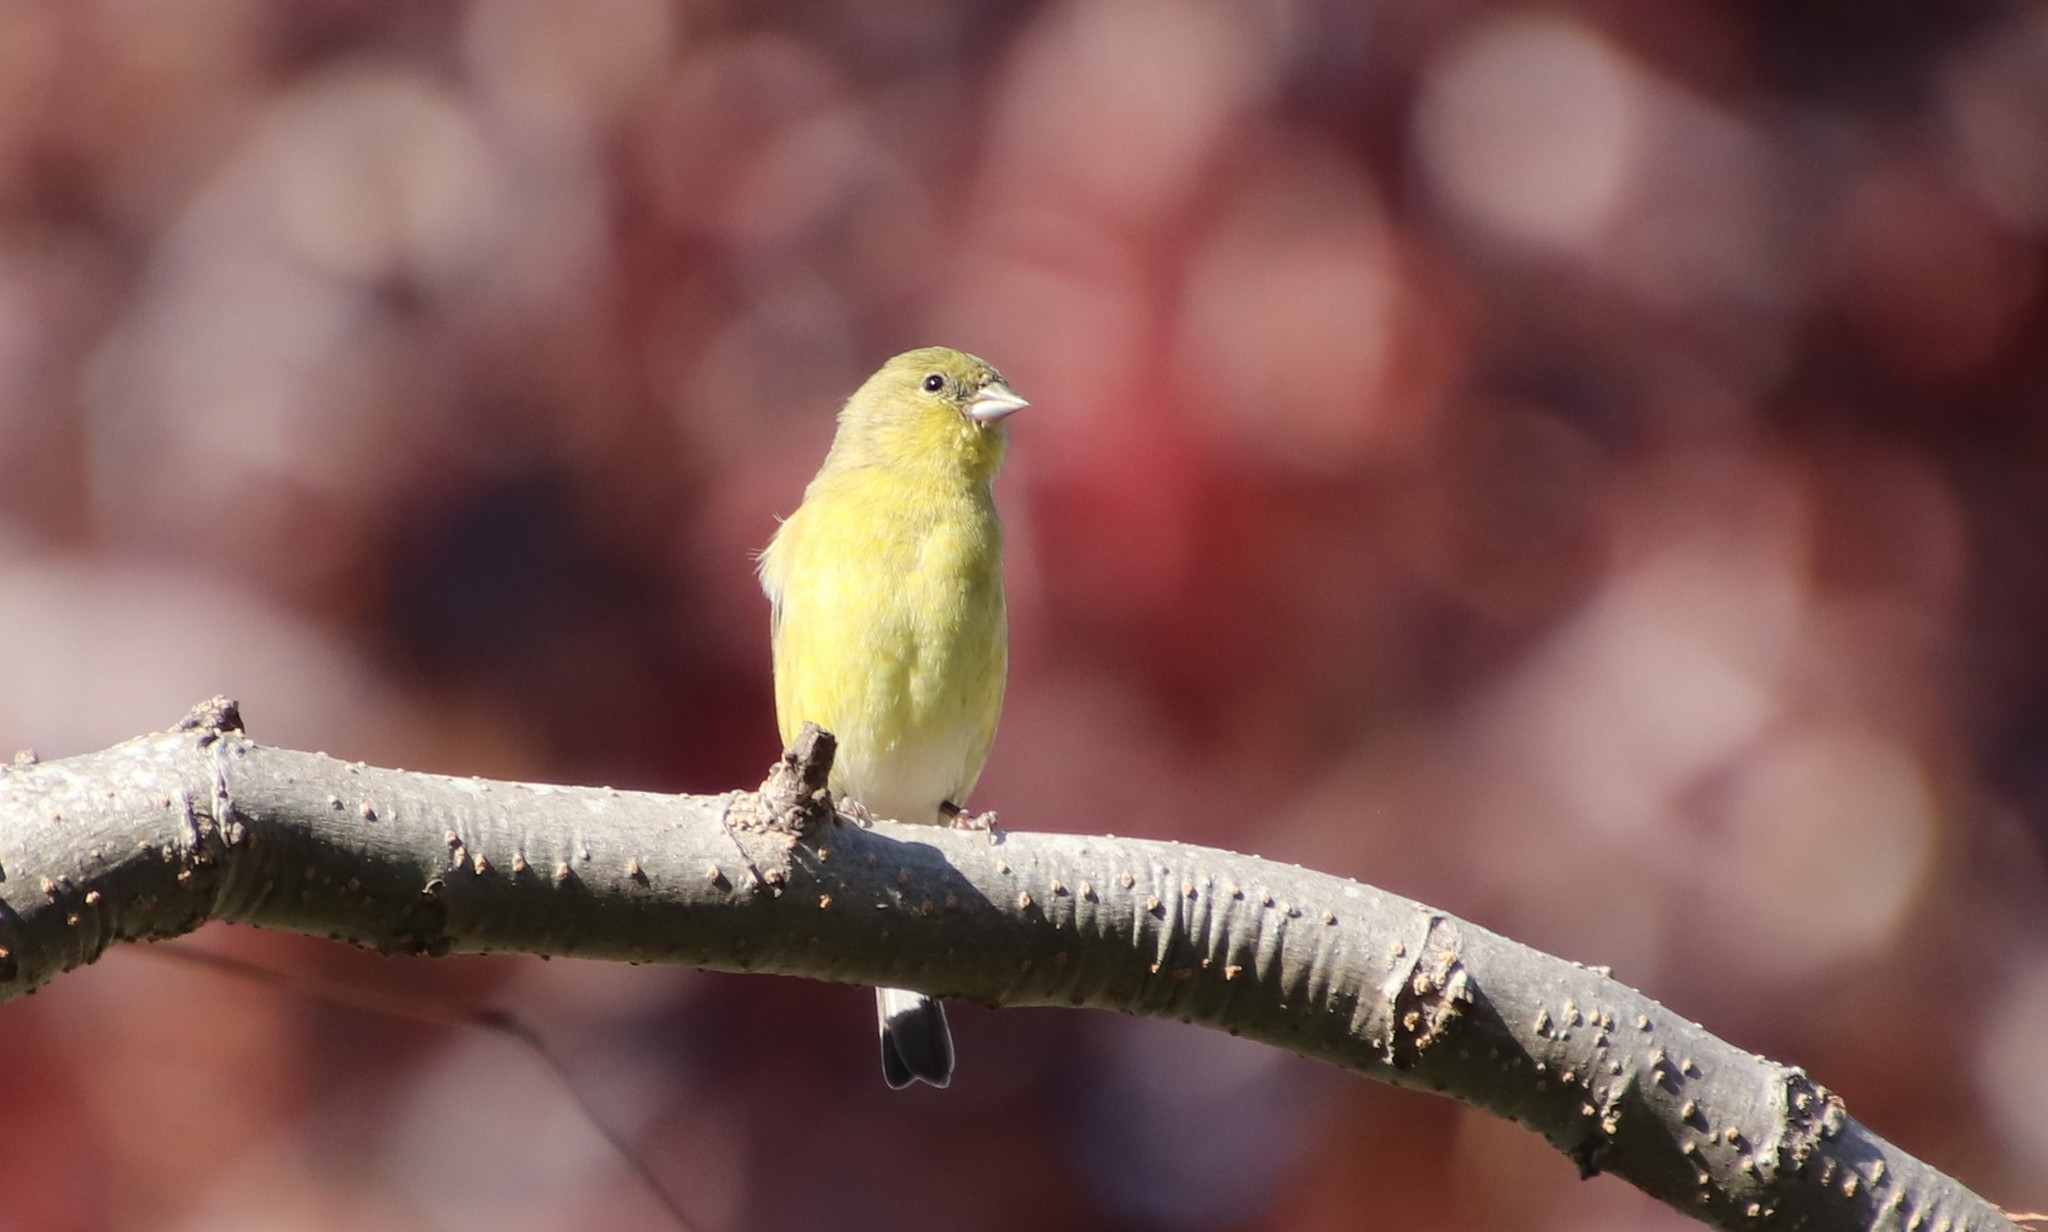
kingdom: Animalia
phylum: Chordata
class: Aves
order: Passeriformes
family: Fringillidae
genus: Spinus
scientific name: Spinus psaltria
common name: Lesser goldfinch
